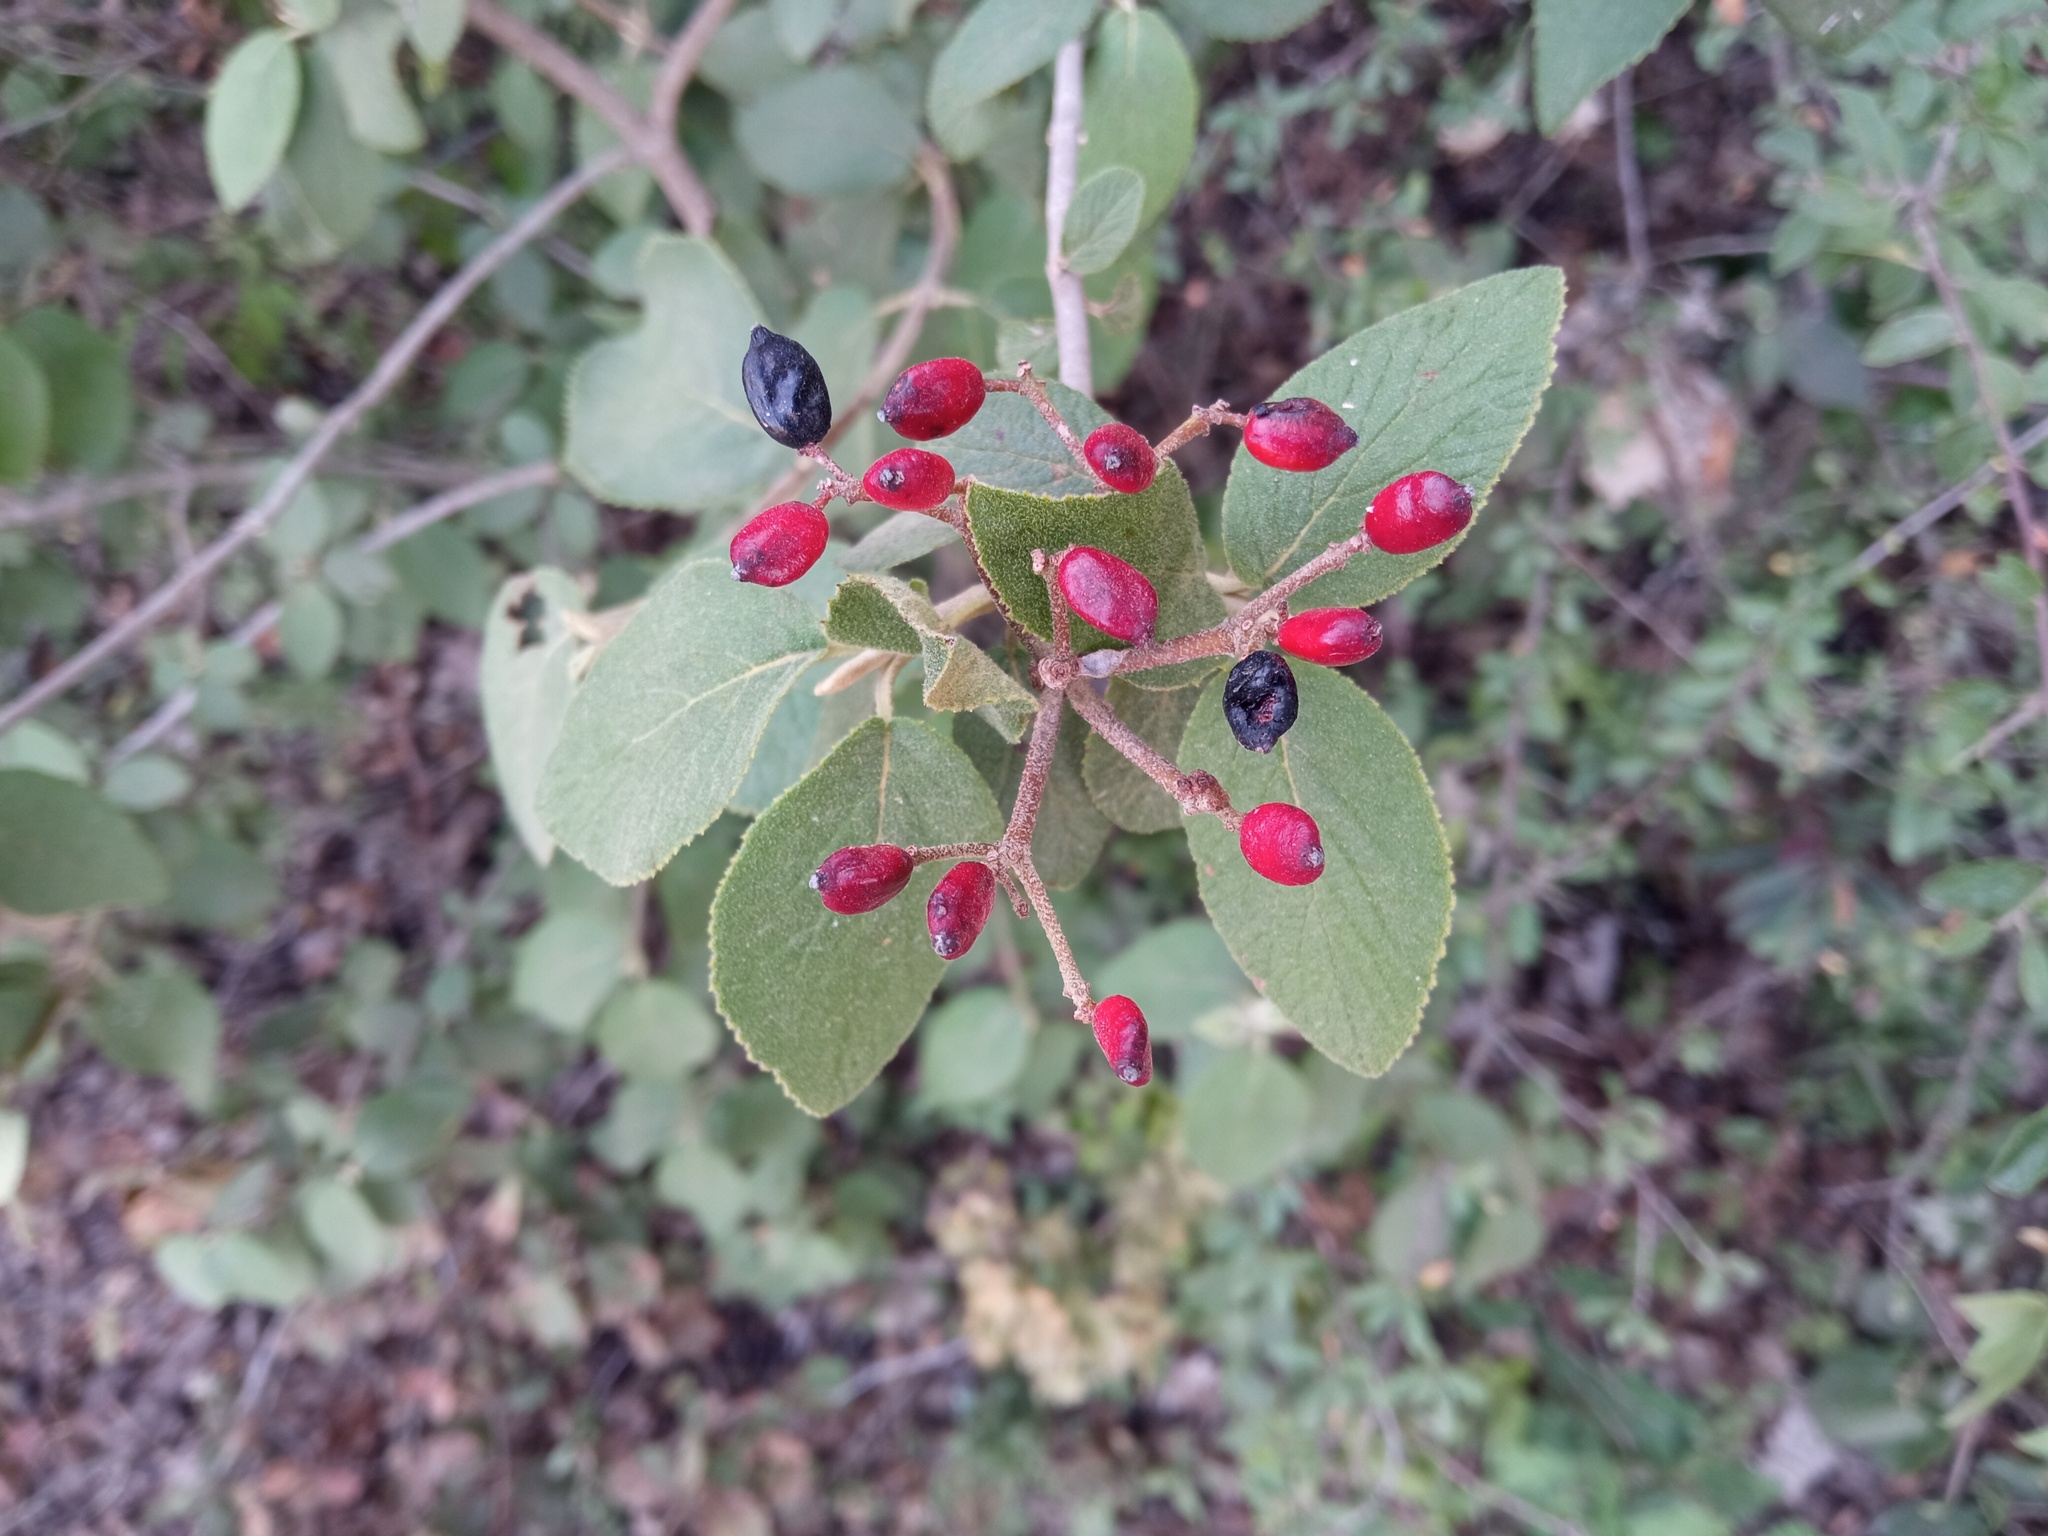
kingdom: Plantae
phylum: Tracheophyta
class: Magnoliopsida
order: Dipsacales
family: Viburnaceae
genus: Viburnum
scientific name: Viburnum lantana
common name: Wayfaring tree
